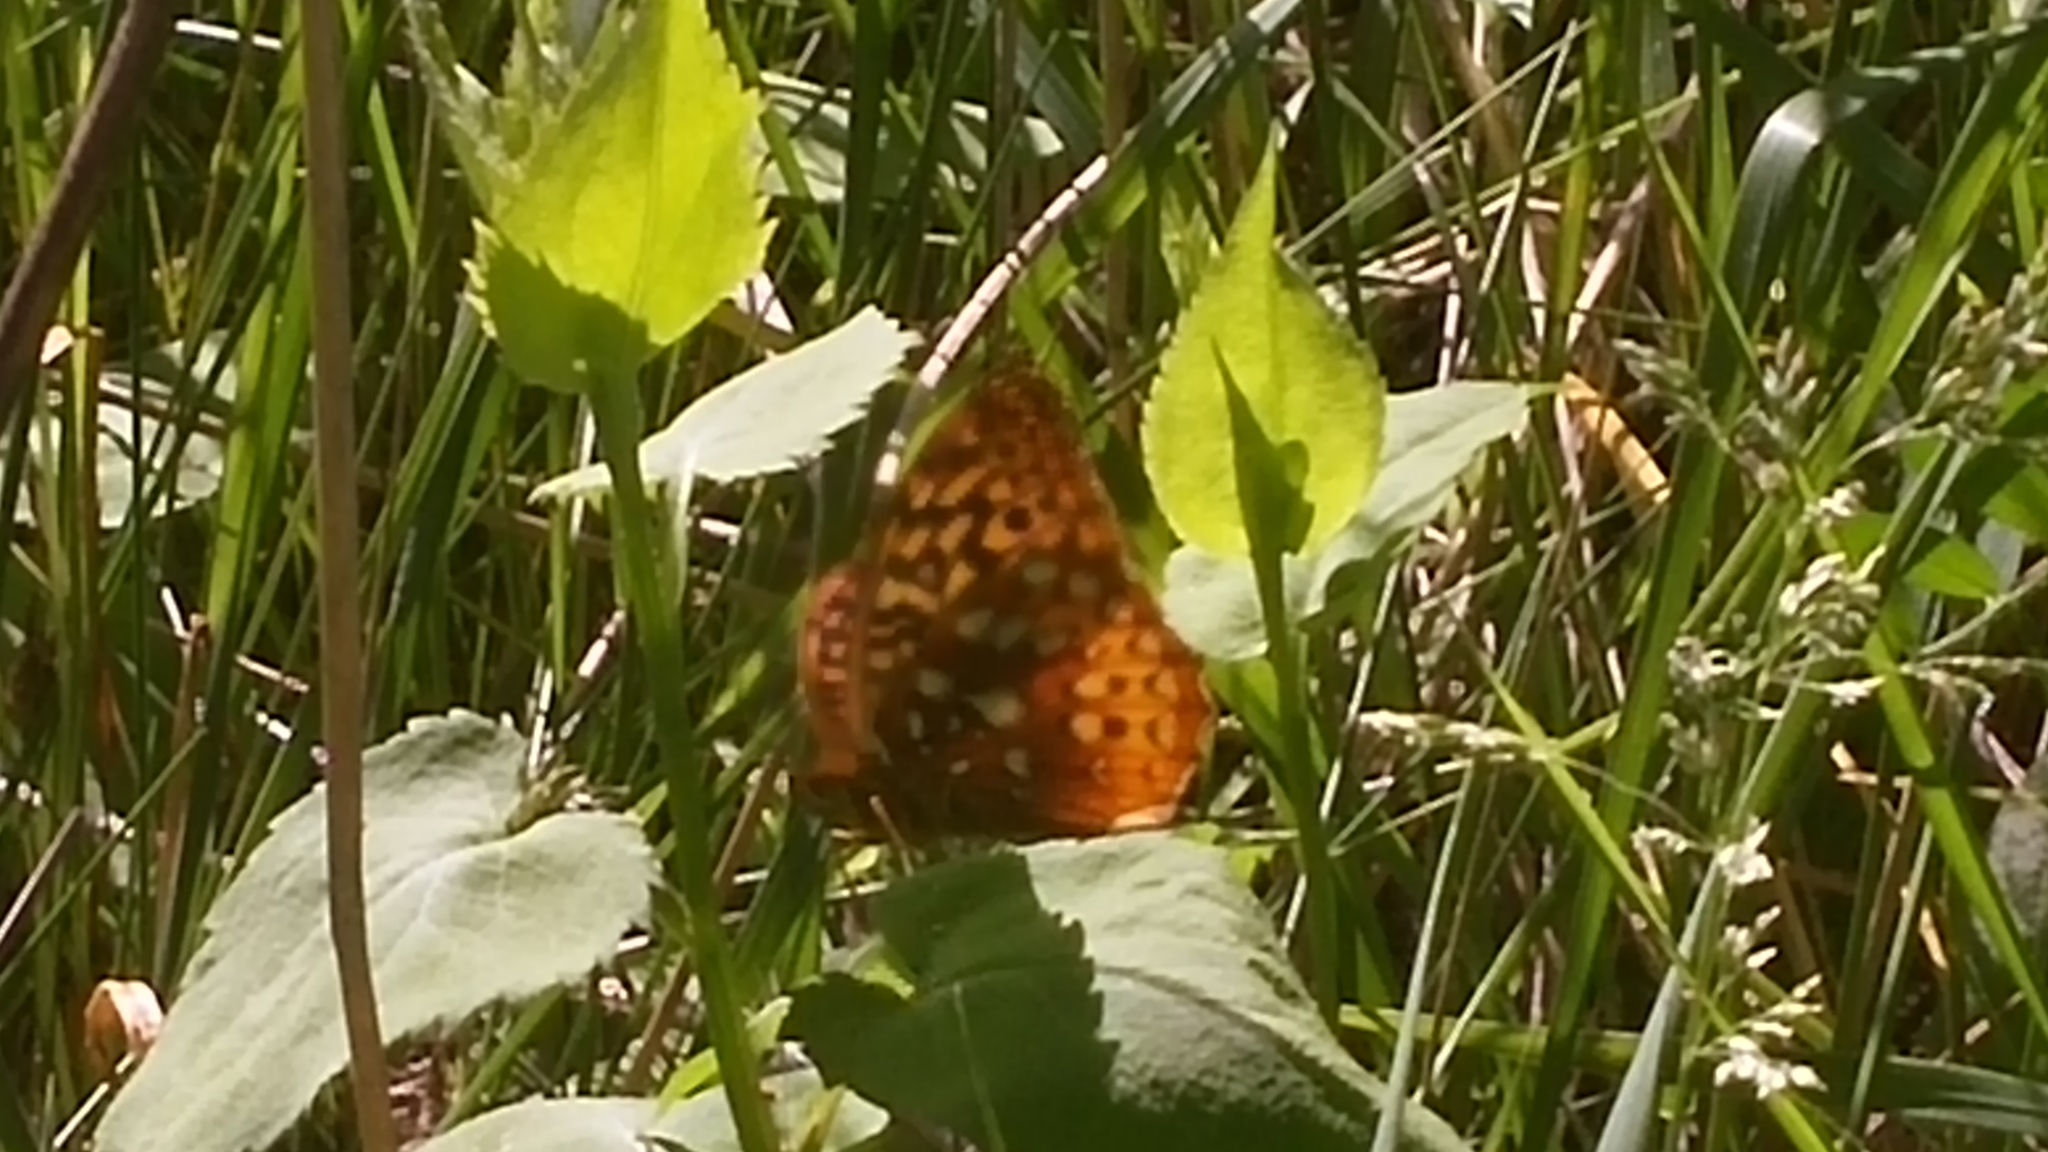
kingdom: Animalia
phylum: Arthropoda
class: Insecta
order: Lepidoptera
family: Nymphalidae
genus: Speyeria
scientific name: Speyeria aphrodite
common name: Aphrodite friitllary
